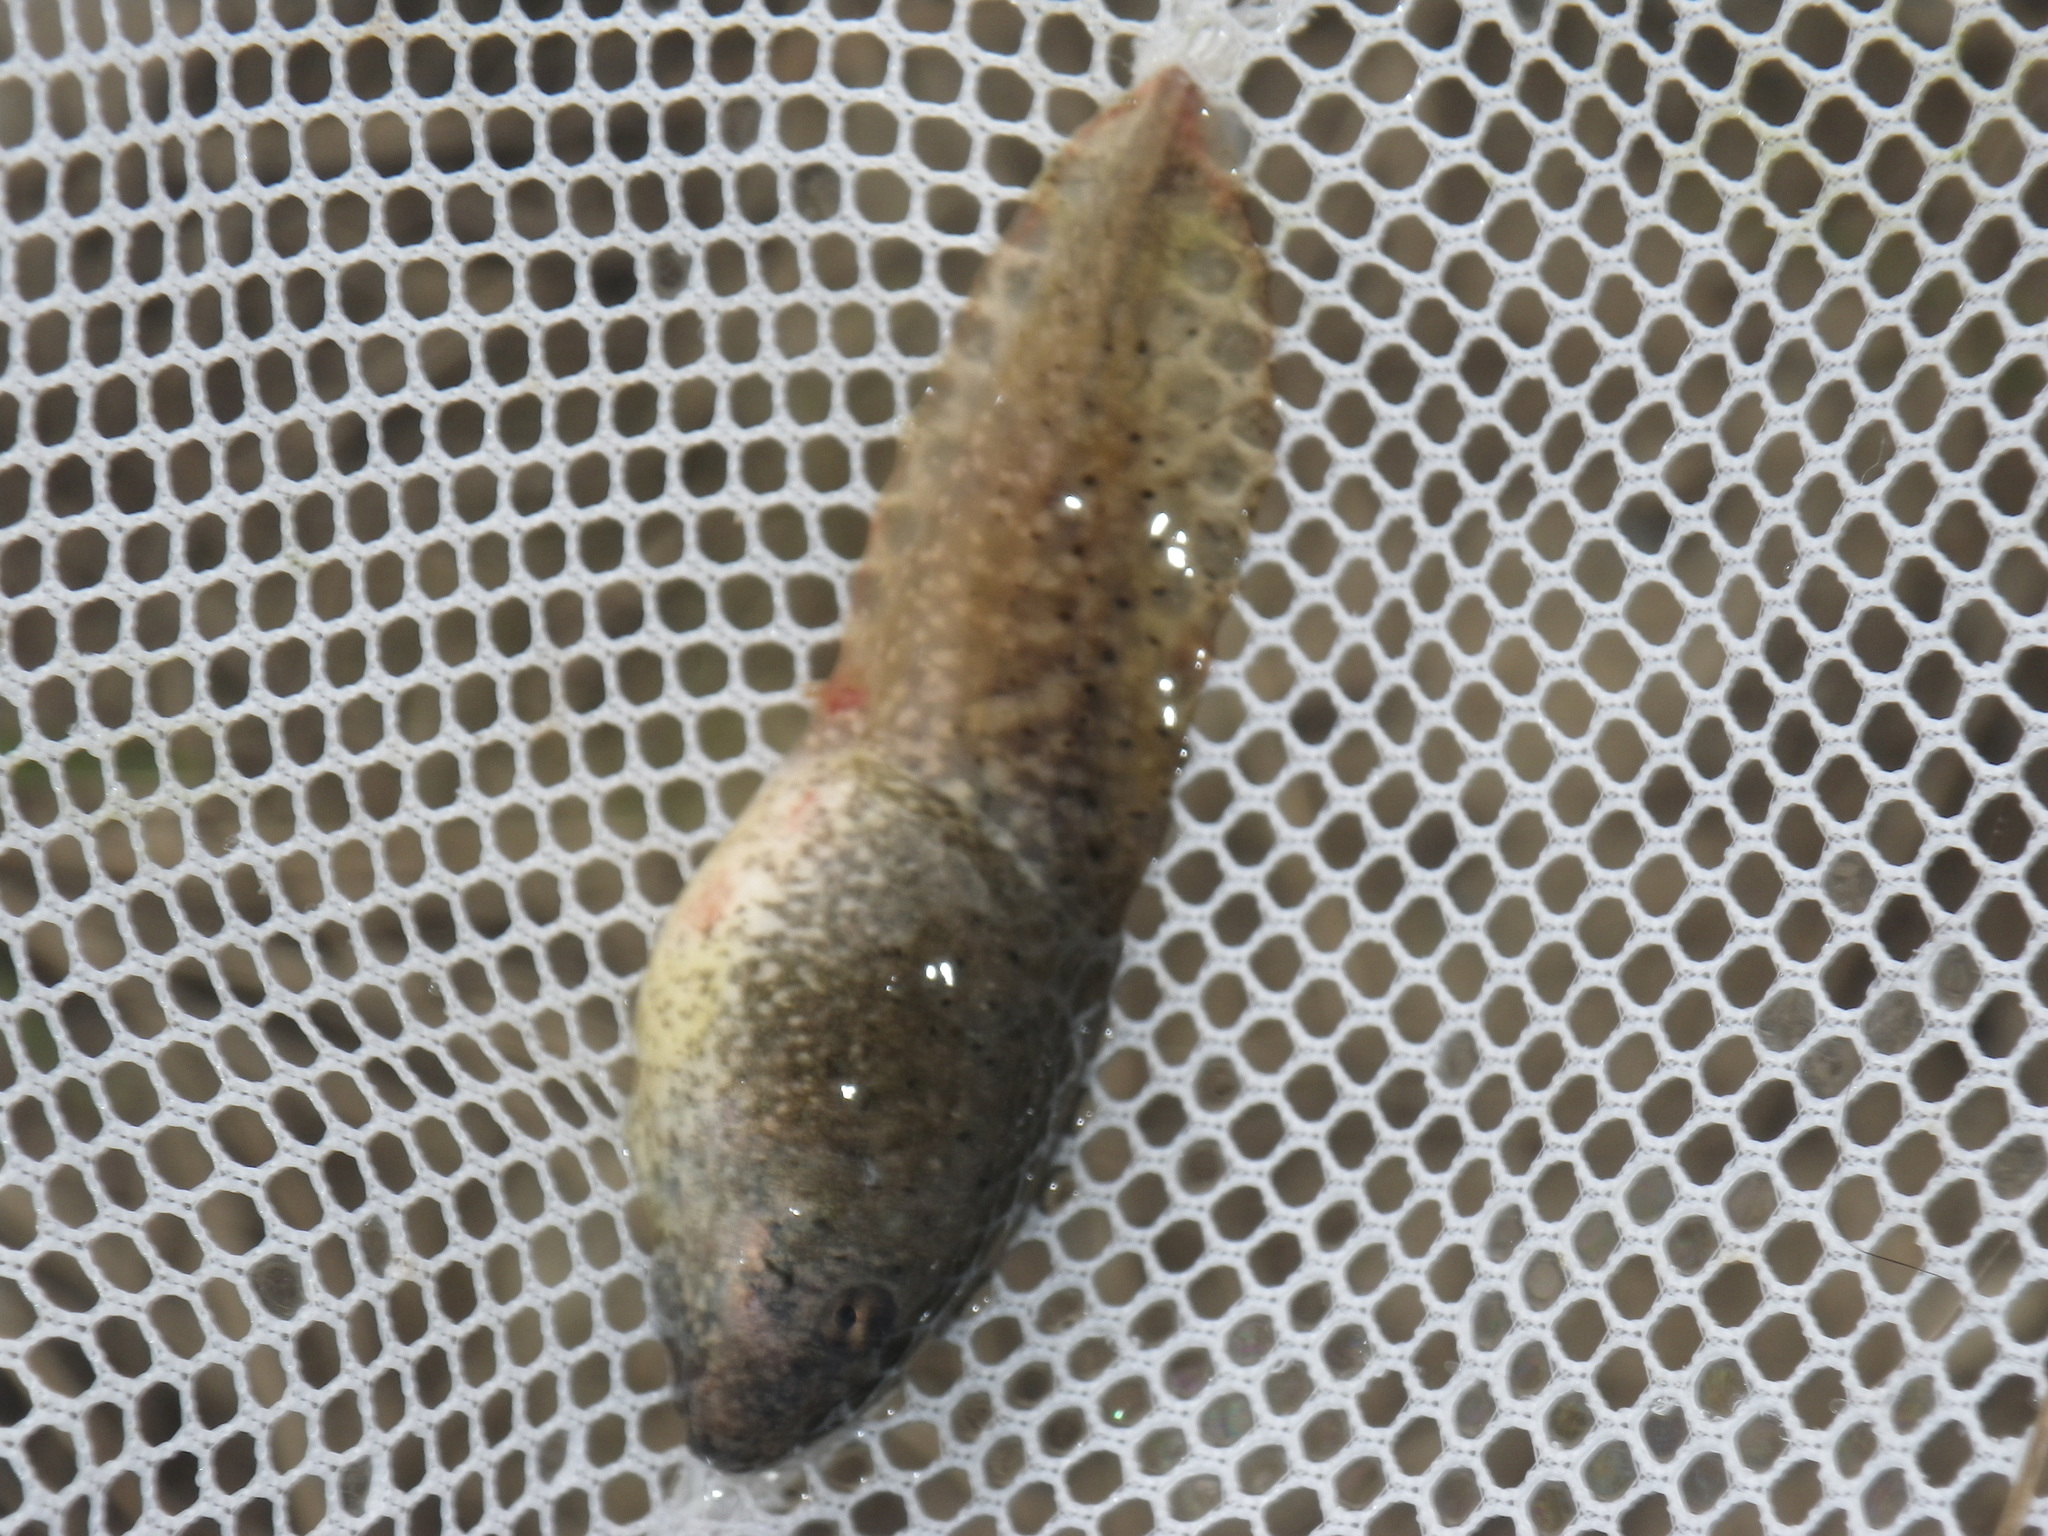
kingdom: Animalia
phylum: Chordata
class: Amphibia
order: Anura
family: Ranidae
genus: Lithobates
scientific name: Lithobates catesbeianus
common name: American bullfrog
